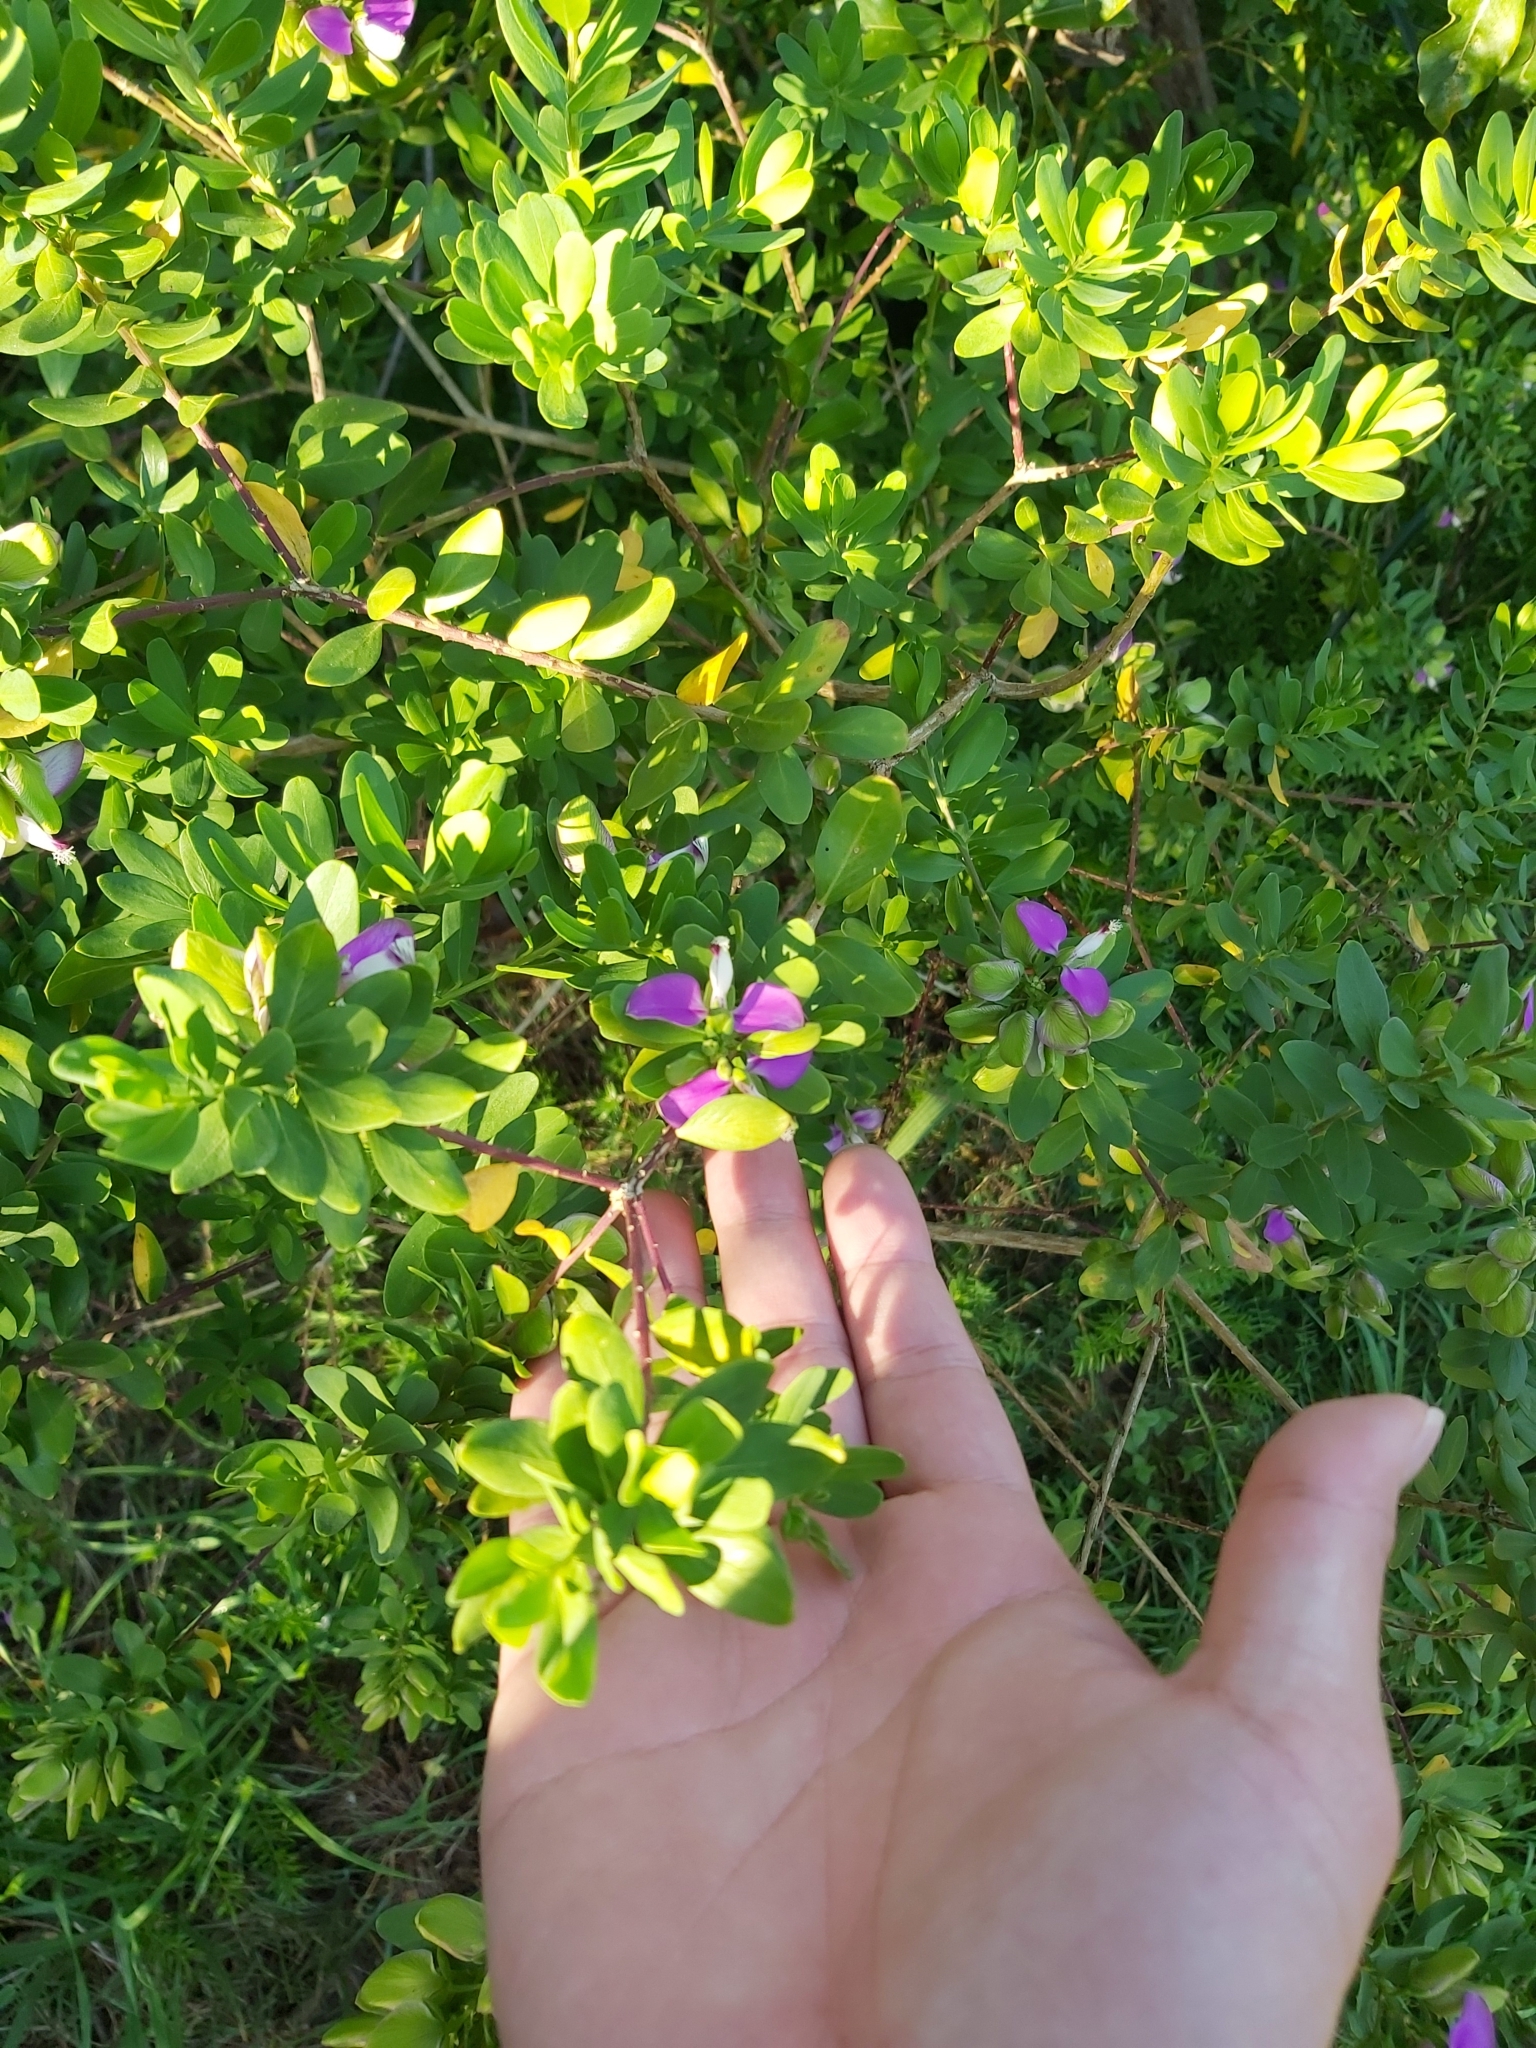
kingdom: Plantae
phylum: Tracheophyta
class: Magnoliopsida
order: Fabales
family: Polygalaceae
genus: Polygala
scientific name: Polygala myrtifolia
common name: Myrtle-leaf milkwort
